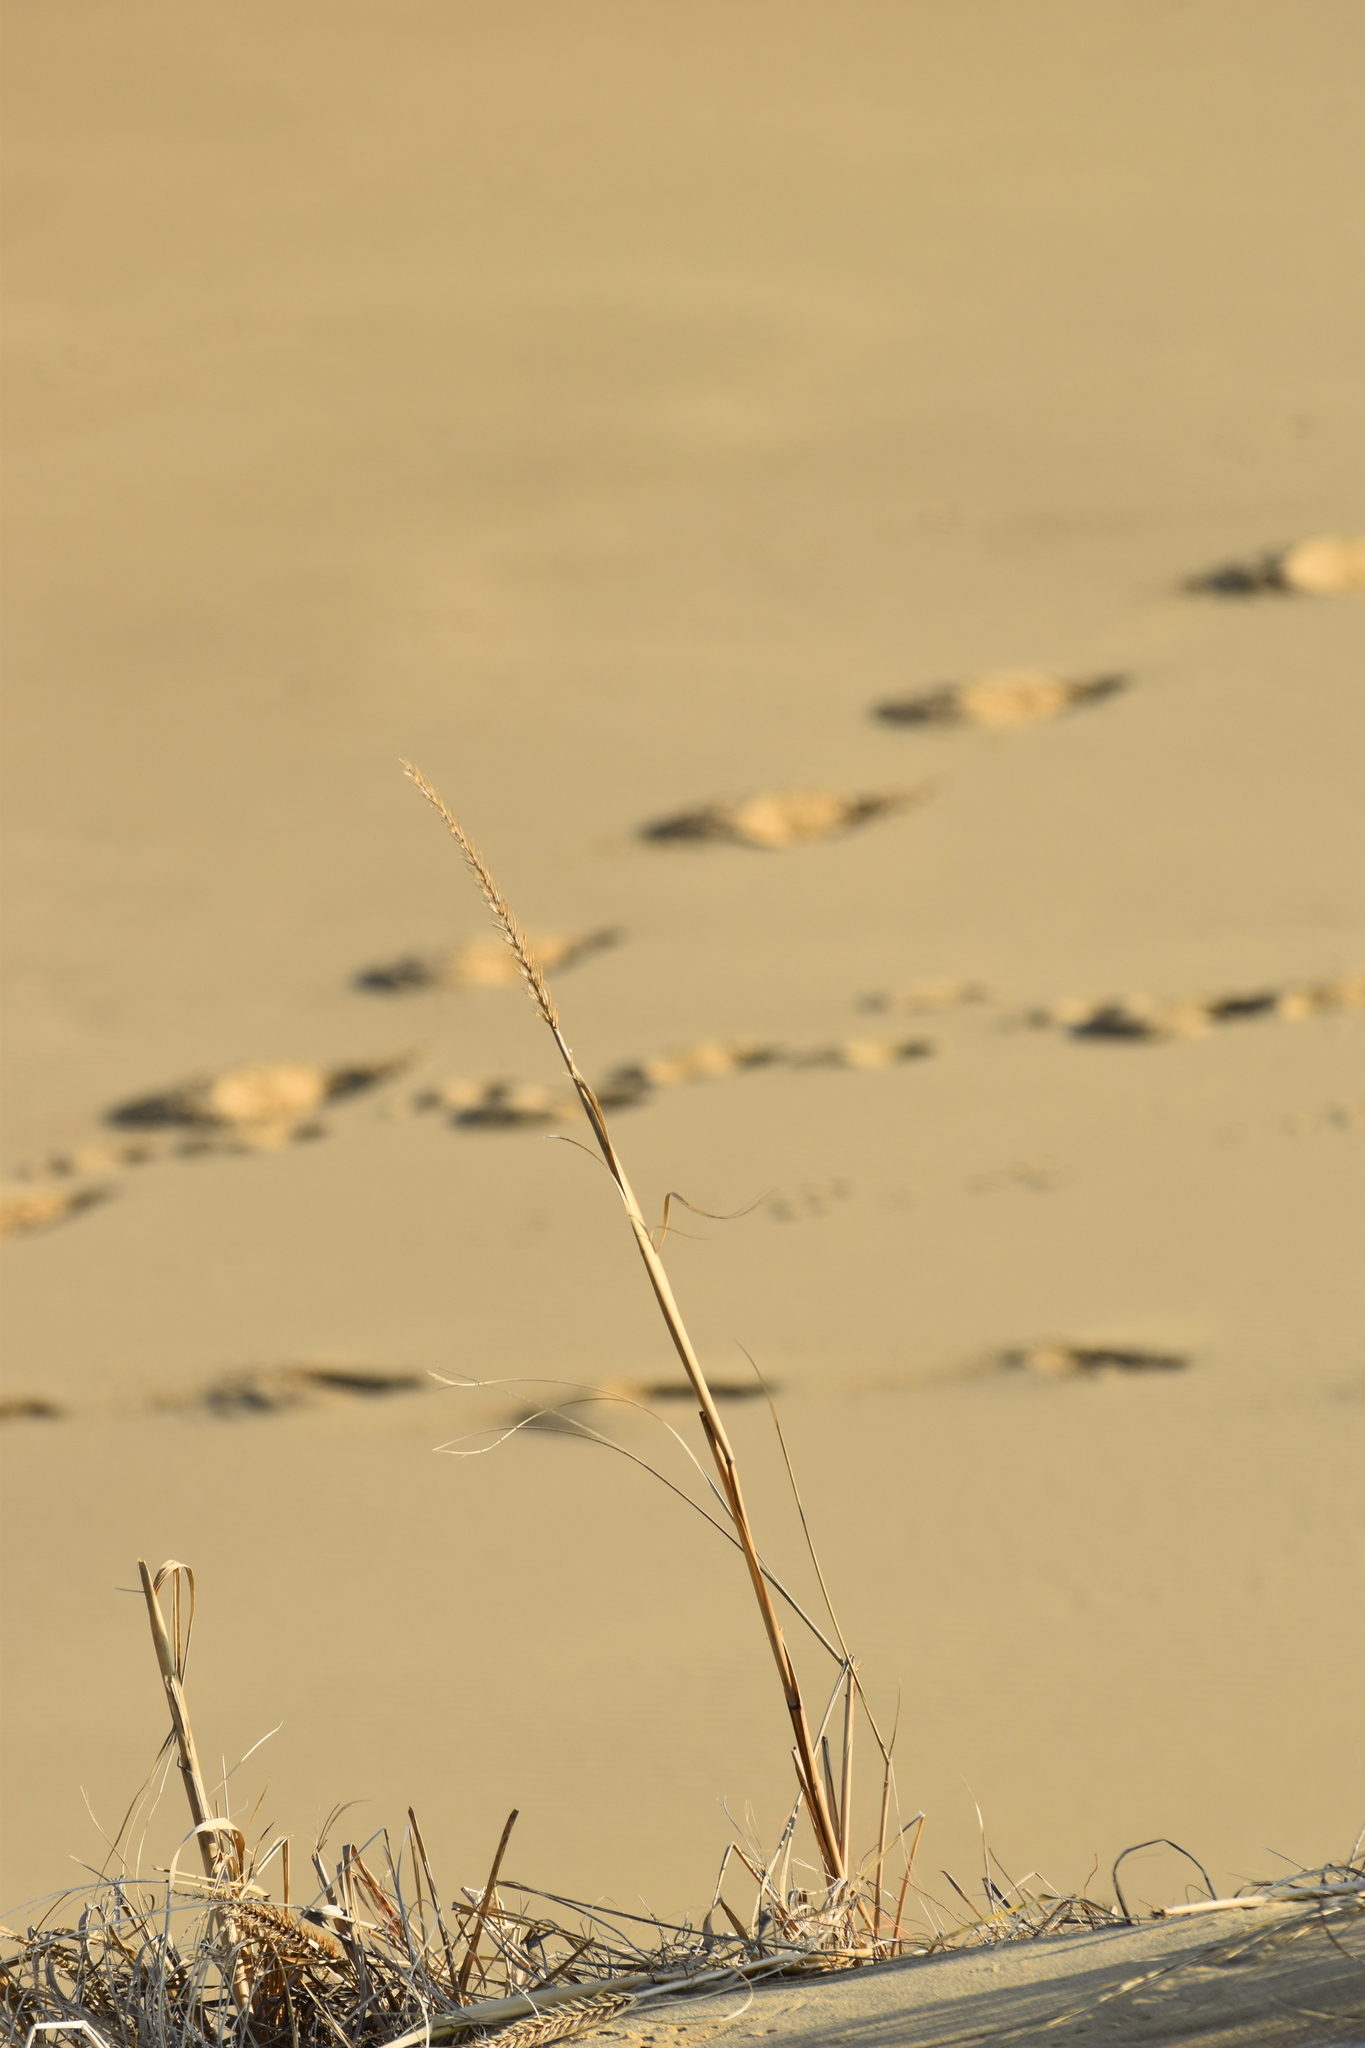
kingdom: Plantae
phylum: Tracheophyta
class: Liliopsida
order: Poales
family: Poaceae
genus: Leymus
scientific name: Leymus racemosus
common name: Mammoth wildrye
